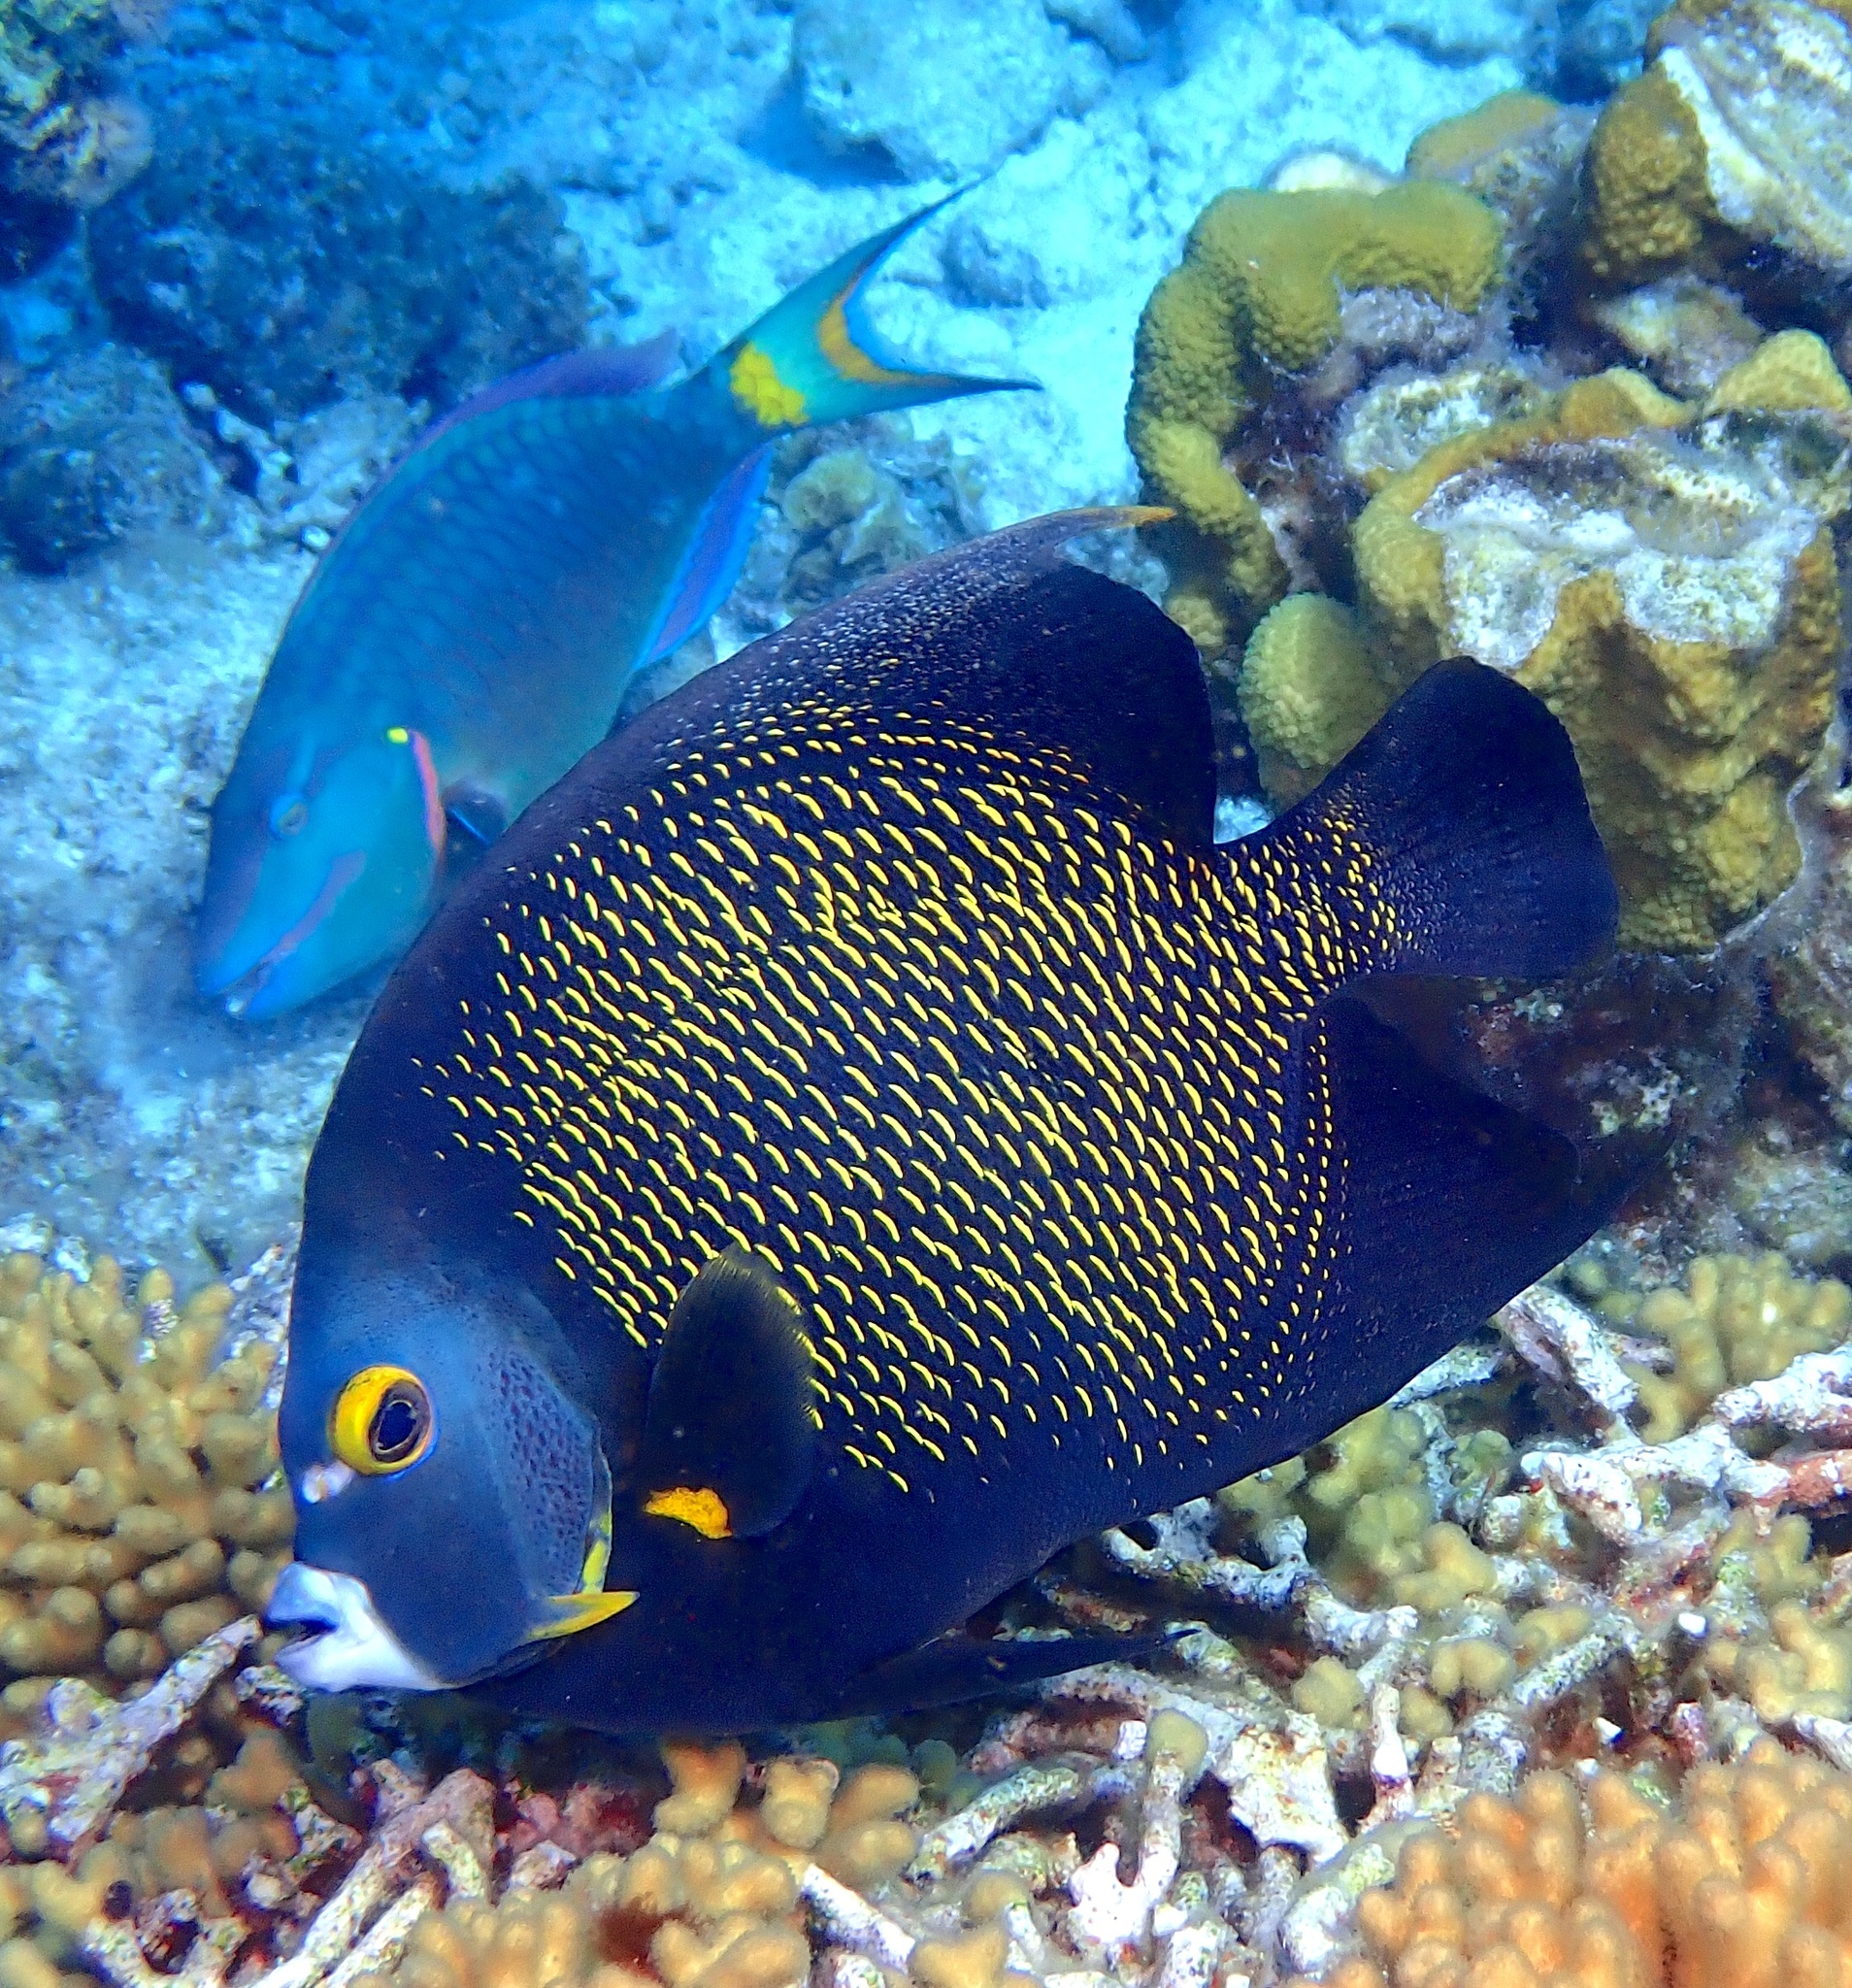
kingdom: Animalia
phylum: Chordata
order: Perciformes
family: Pomacanthidae
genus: Pomacanthus
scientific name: Pomacanthus paru
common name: French angelfish
